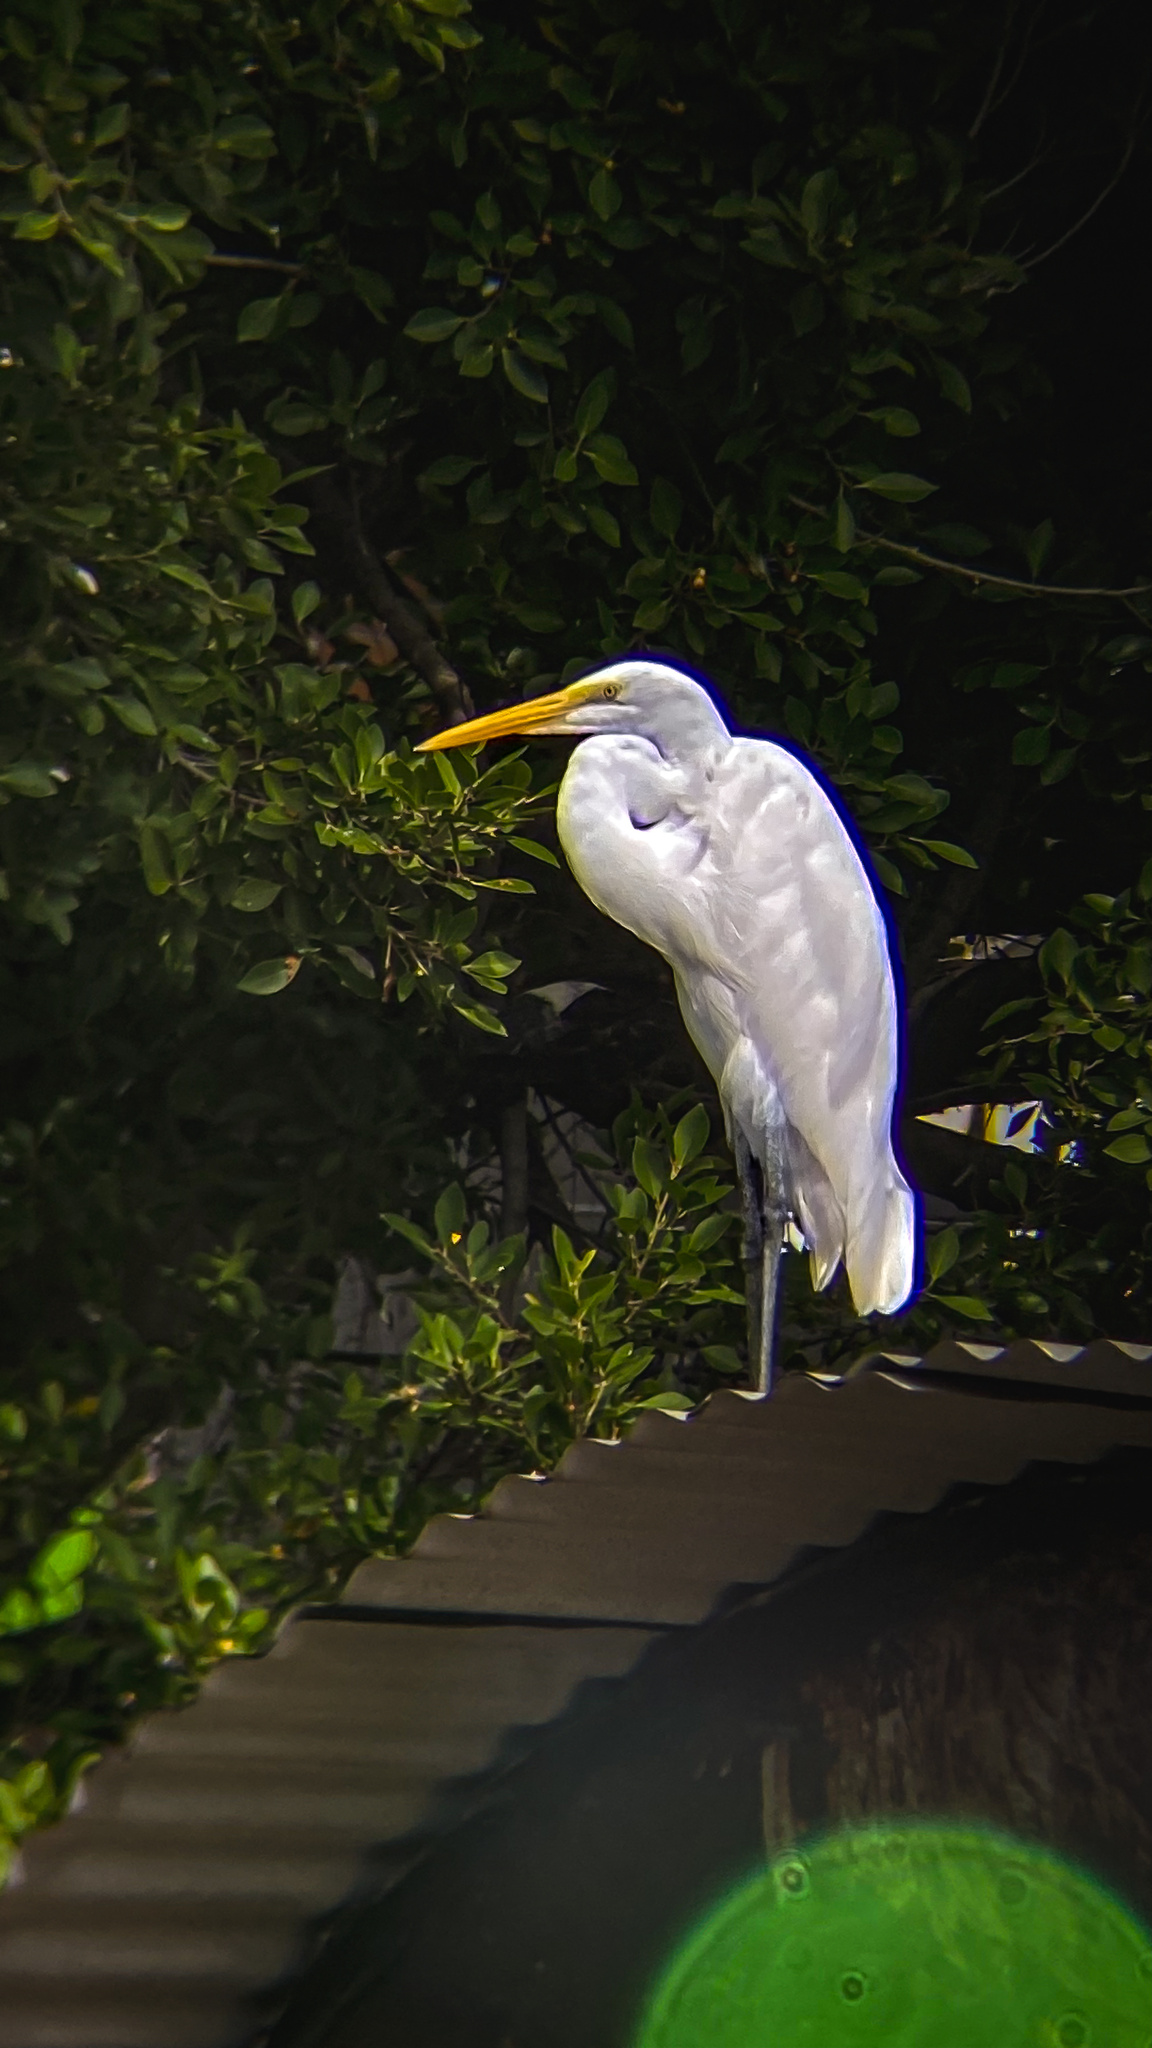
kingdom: Animalia
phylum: Chordata
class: Aves
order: Pelecaniformes
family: Ardeidae
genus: Ardea
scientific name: Ardea alba
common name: Great egret
